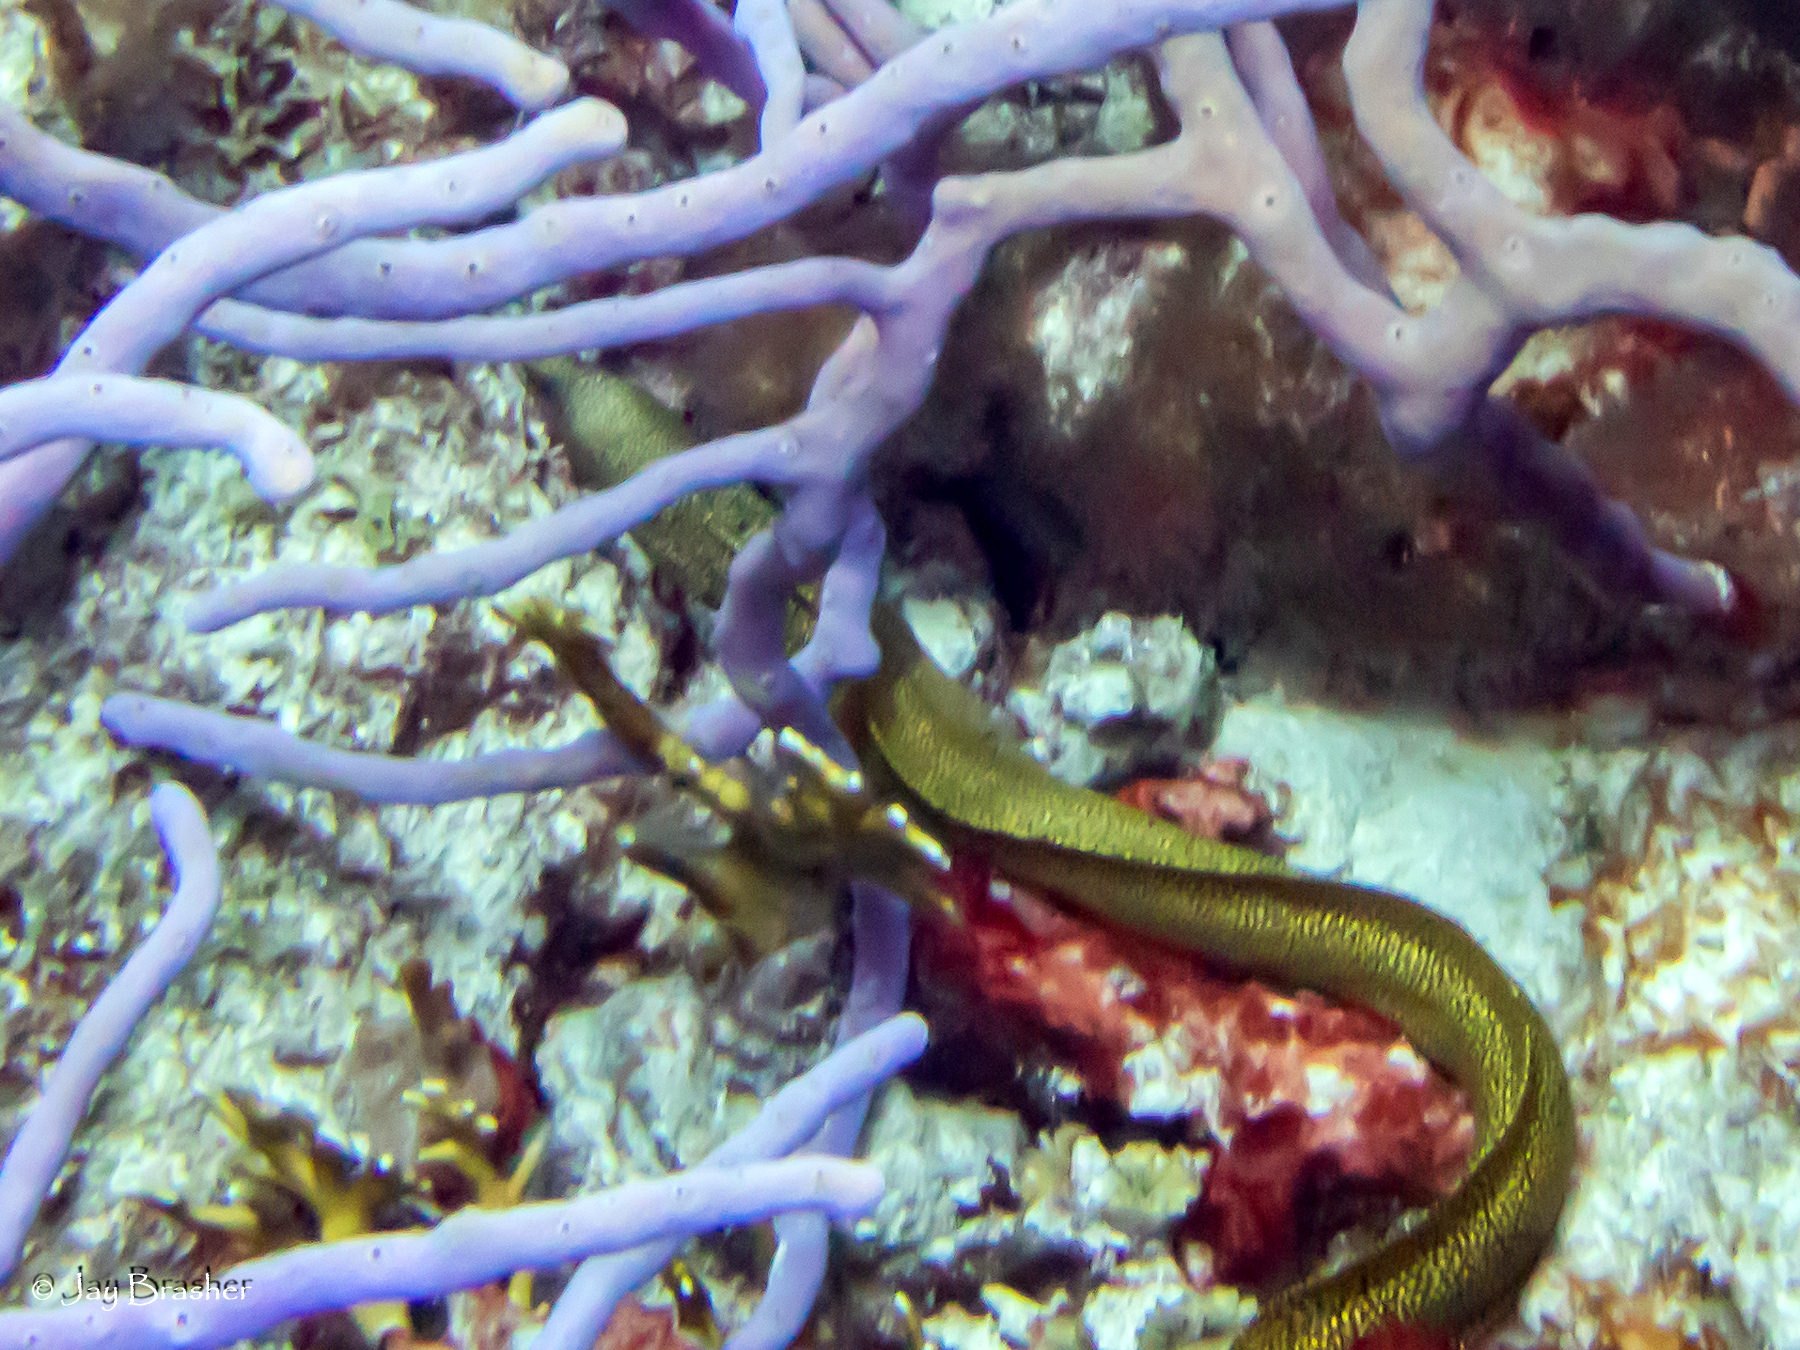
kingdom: Animalia
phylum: Chordata
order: Anguilliformes
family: Muraenidae
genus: Gymnothorax
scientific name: Gymnothorax miliaris
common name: Goldentail moray
